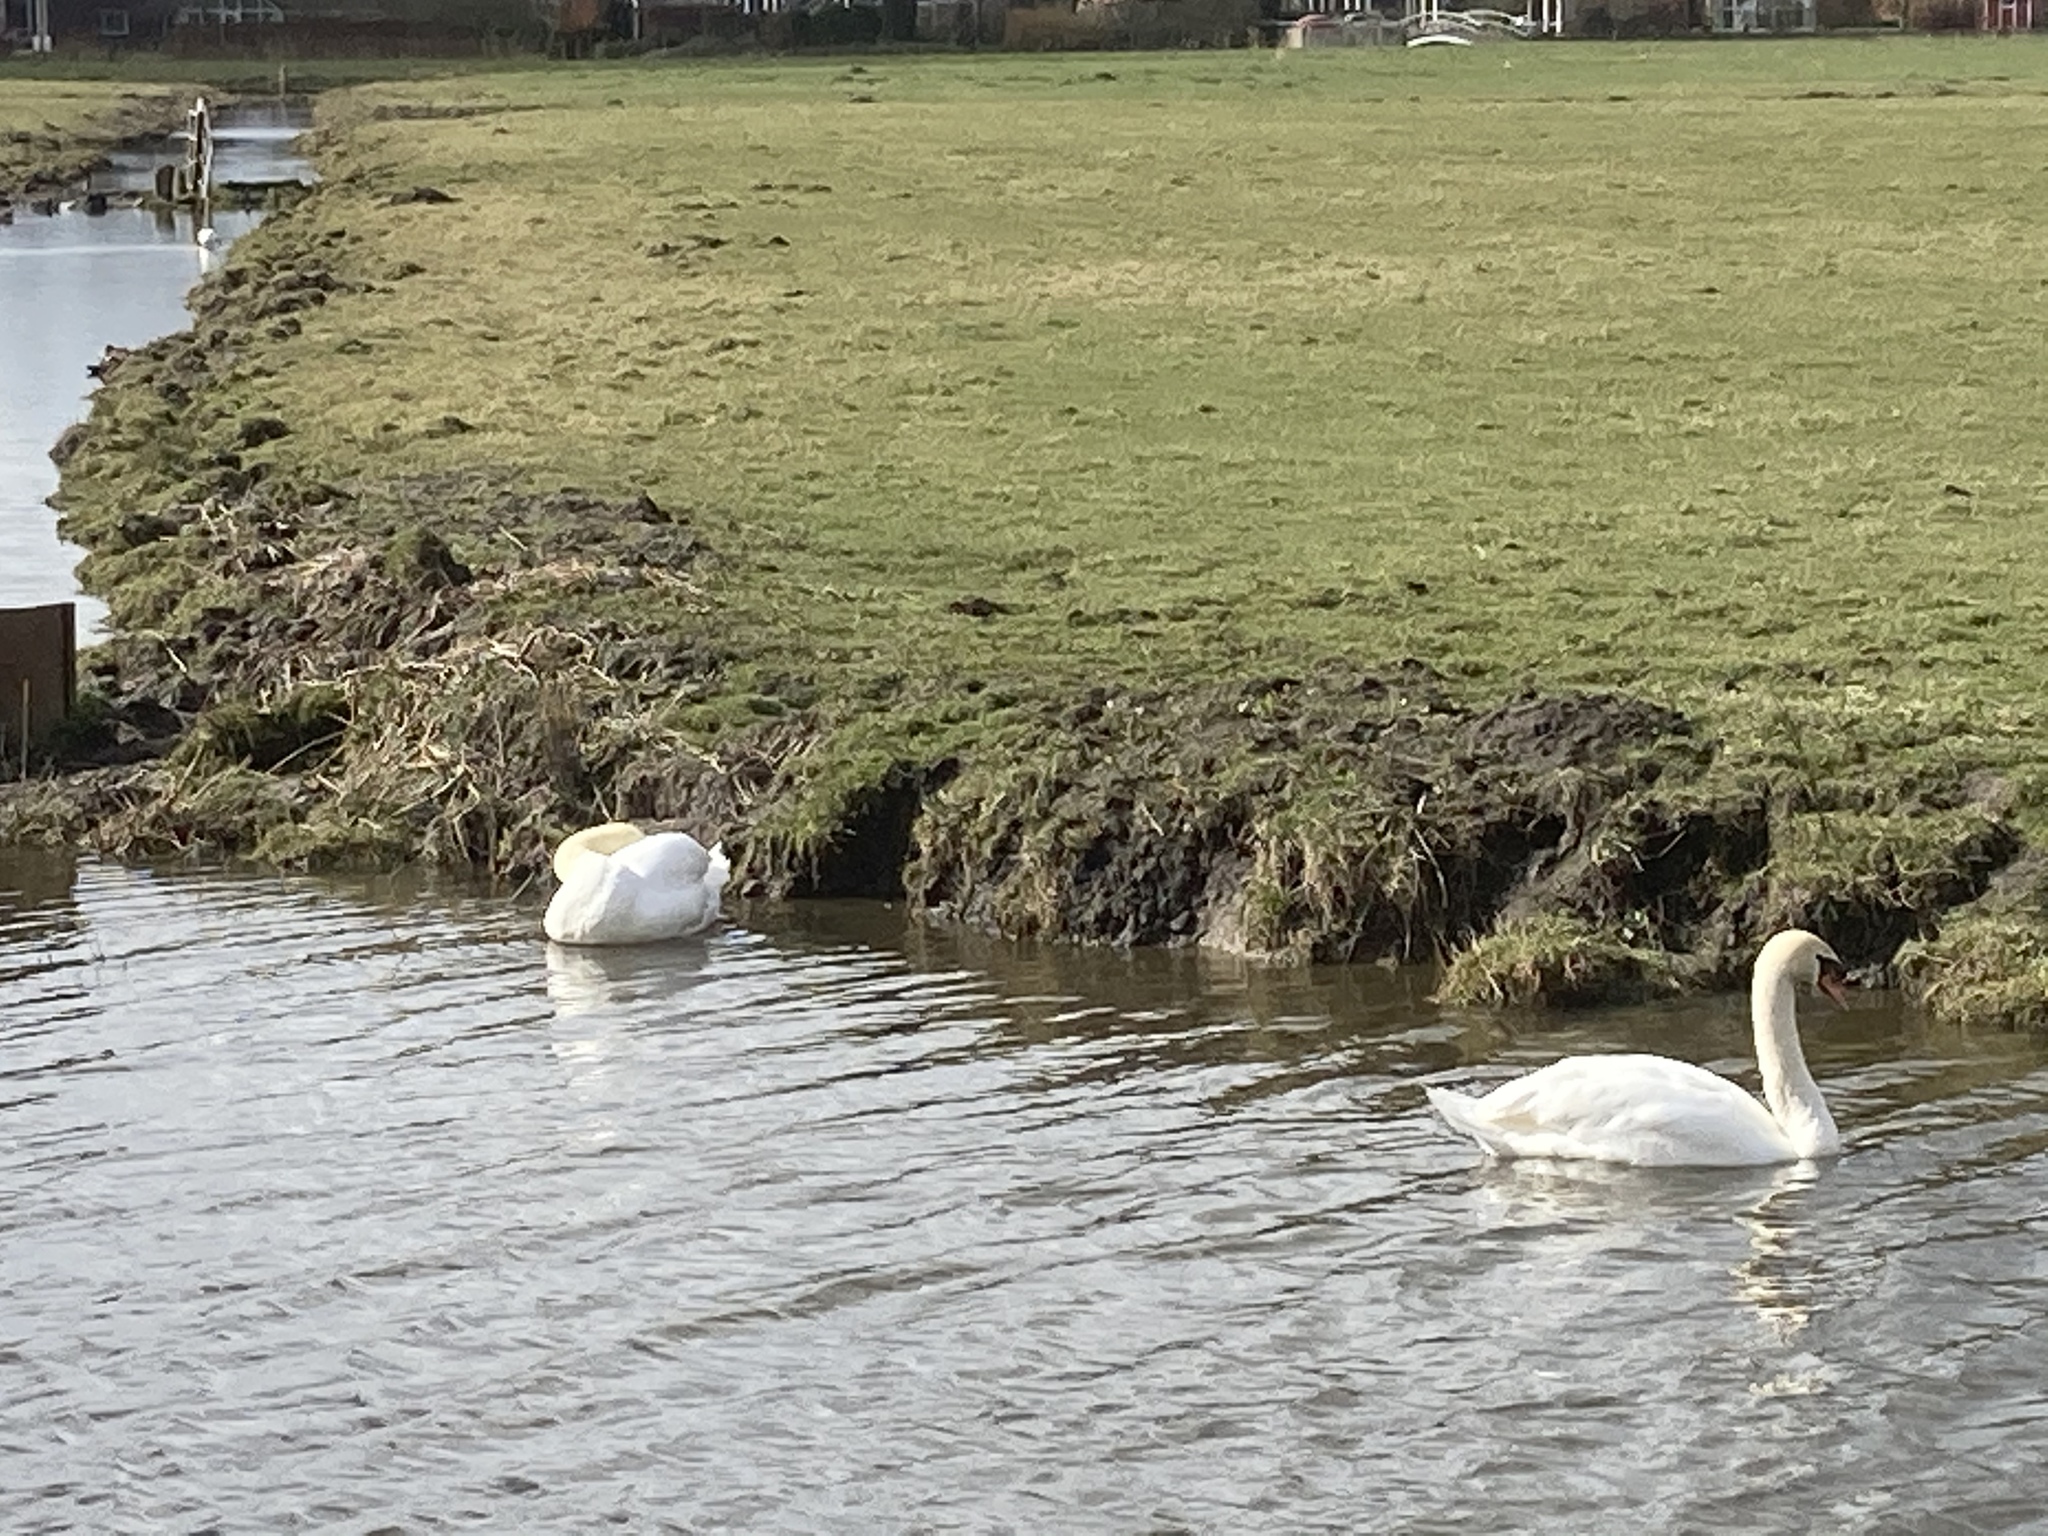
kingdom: Animalia
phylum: Chordata
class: Aves
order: Anseriformes
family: Anatidae
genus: Cygnus
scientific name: Cygnus olor
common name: Mute swan
